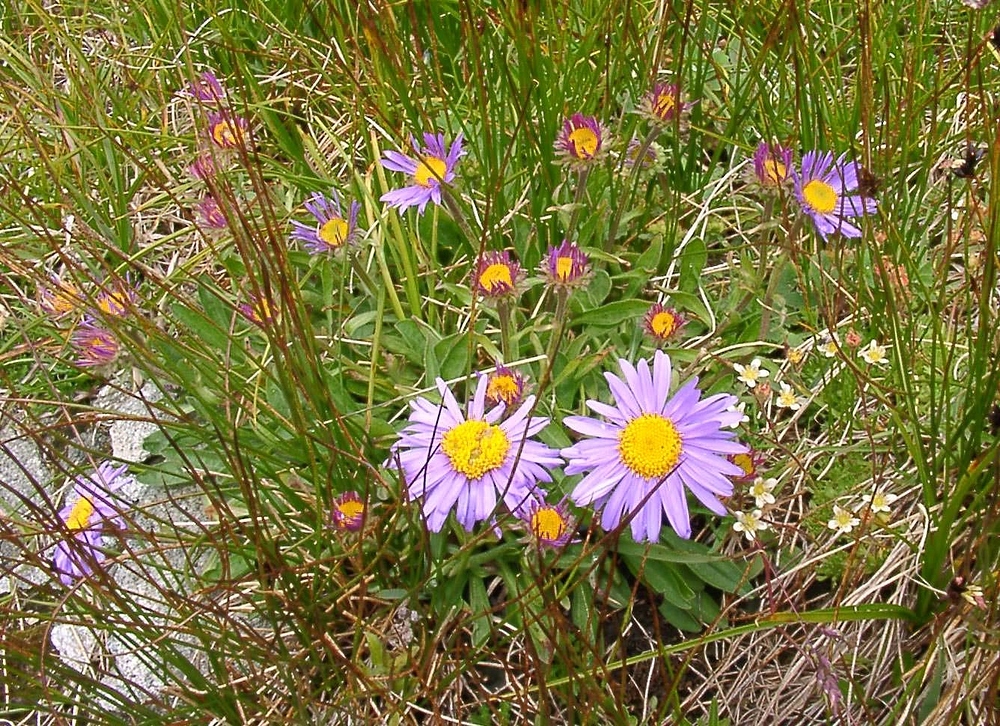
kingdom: Plantae
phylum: Tracheophyta
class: Magnoliopsida
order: Asterales
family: Asteraceae
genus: Aster
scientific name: Aster alpinus
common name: Alpine aster
